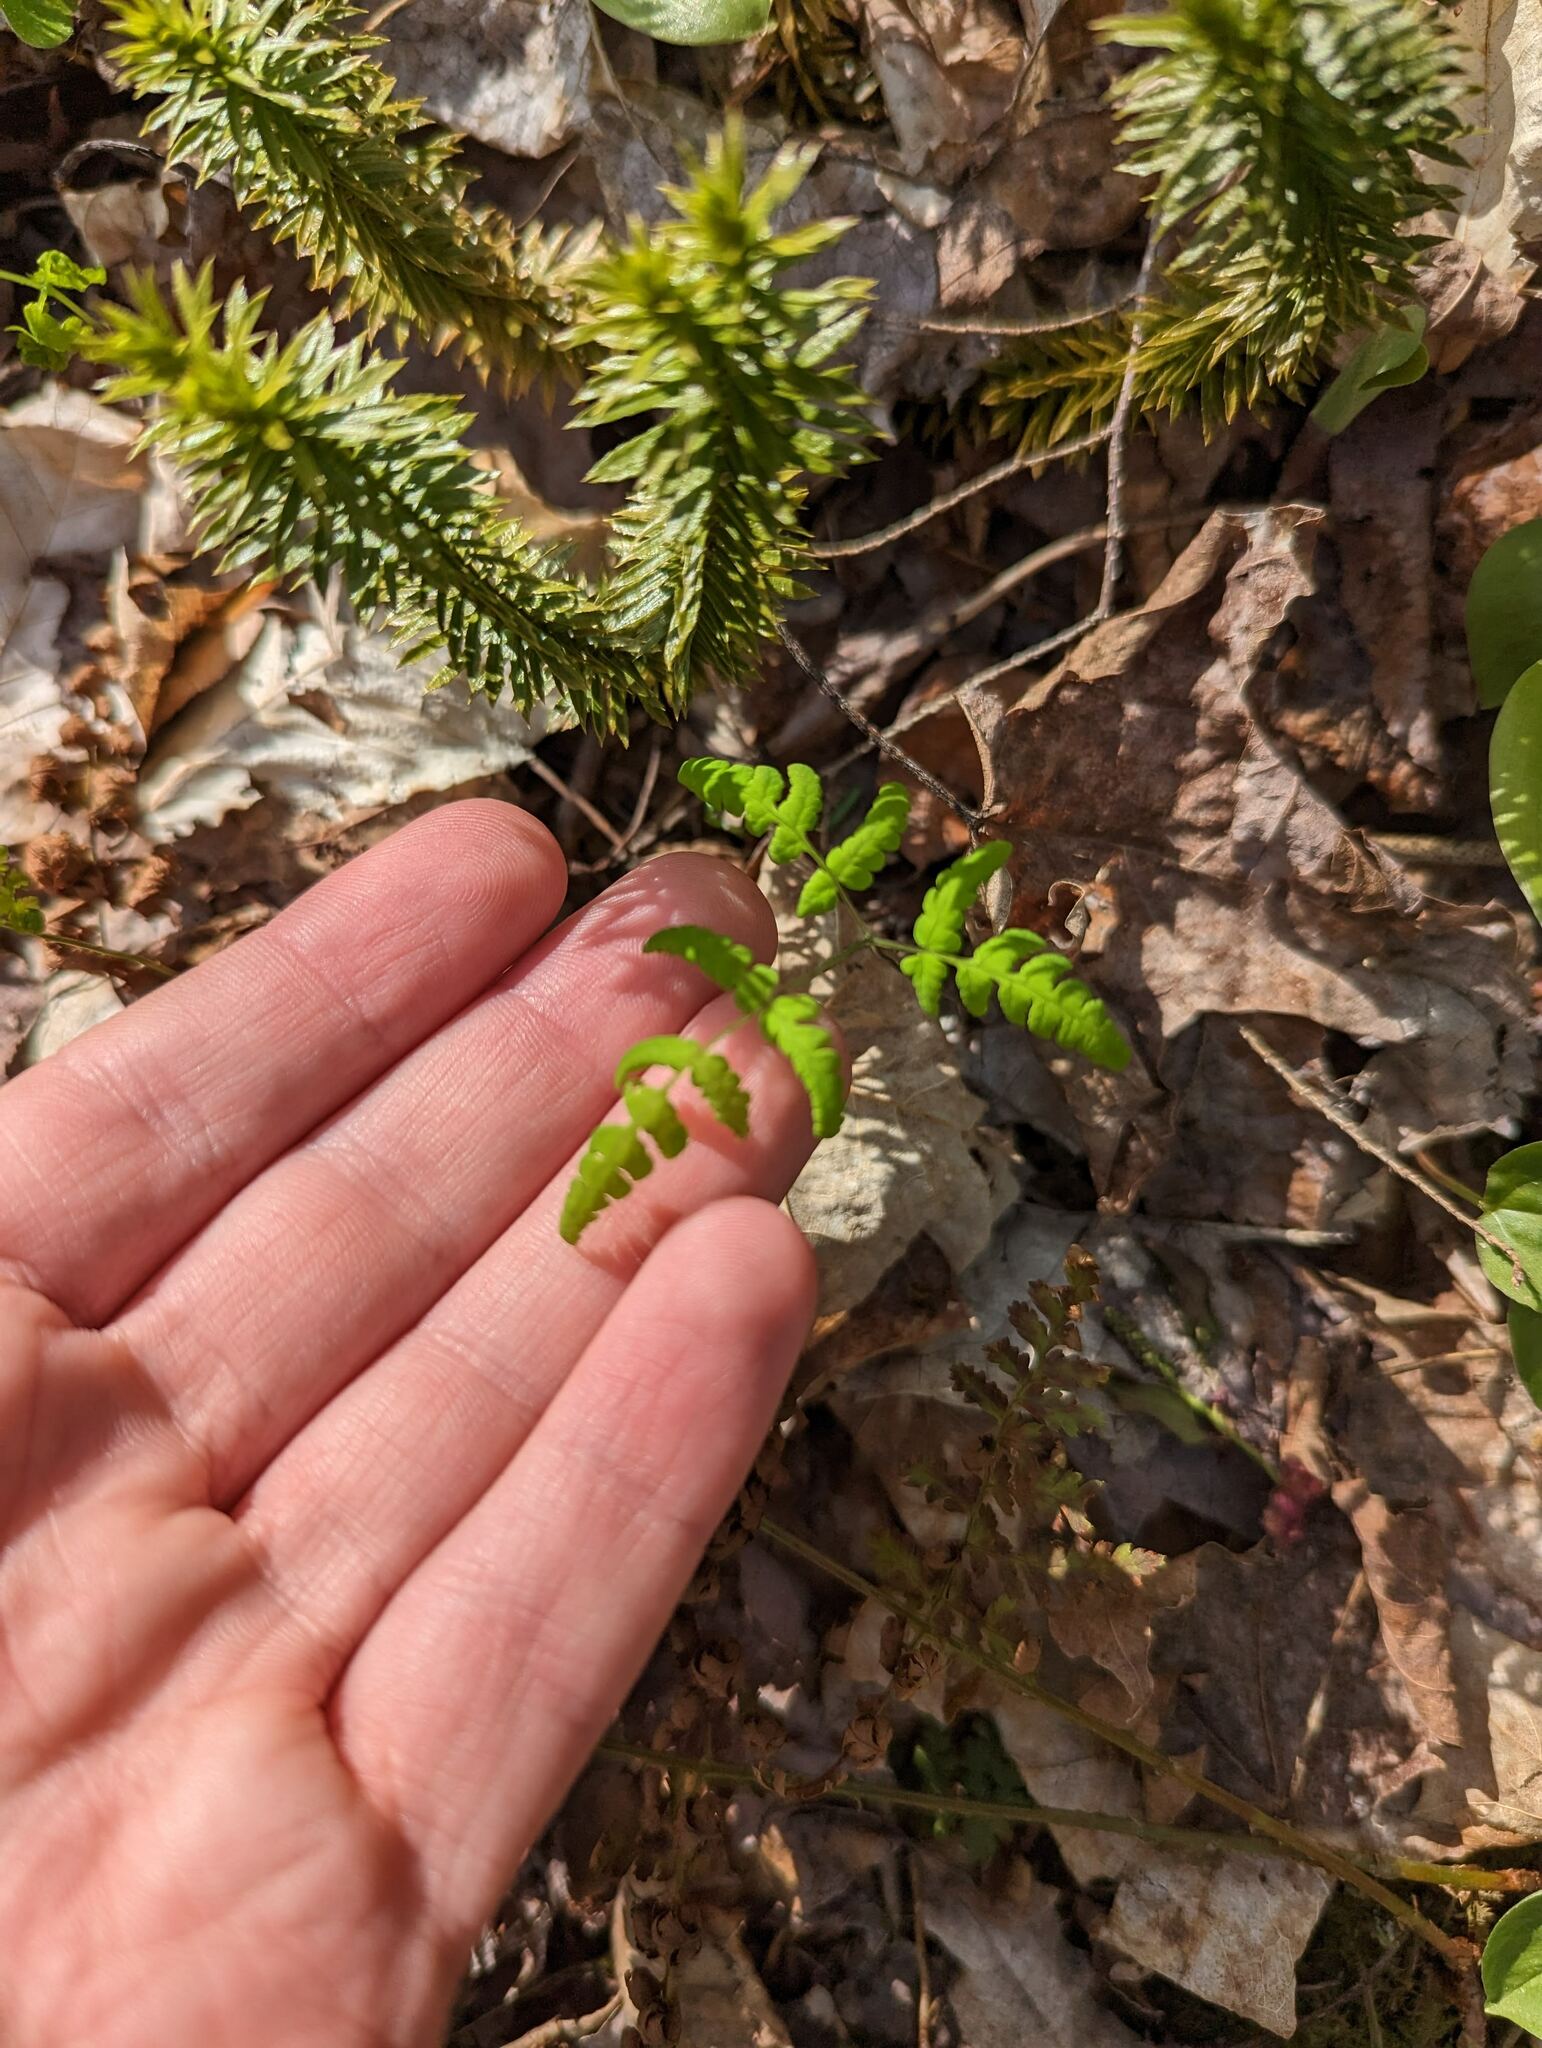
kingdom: Plantae
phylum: Tracheophyta
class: Polypodiopsida
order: Polypodiales
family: Cystopteridaceae
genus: Gymnocarpium
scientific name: Gymnocarpium dryopteris
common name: Oak fern
